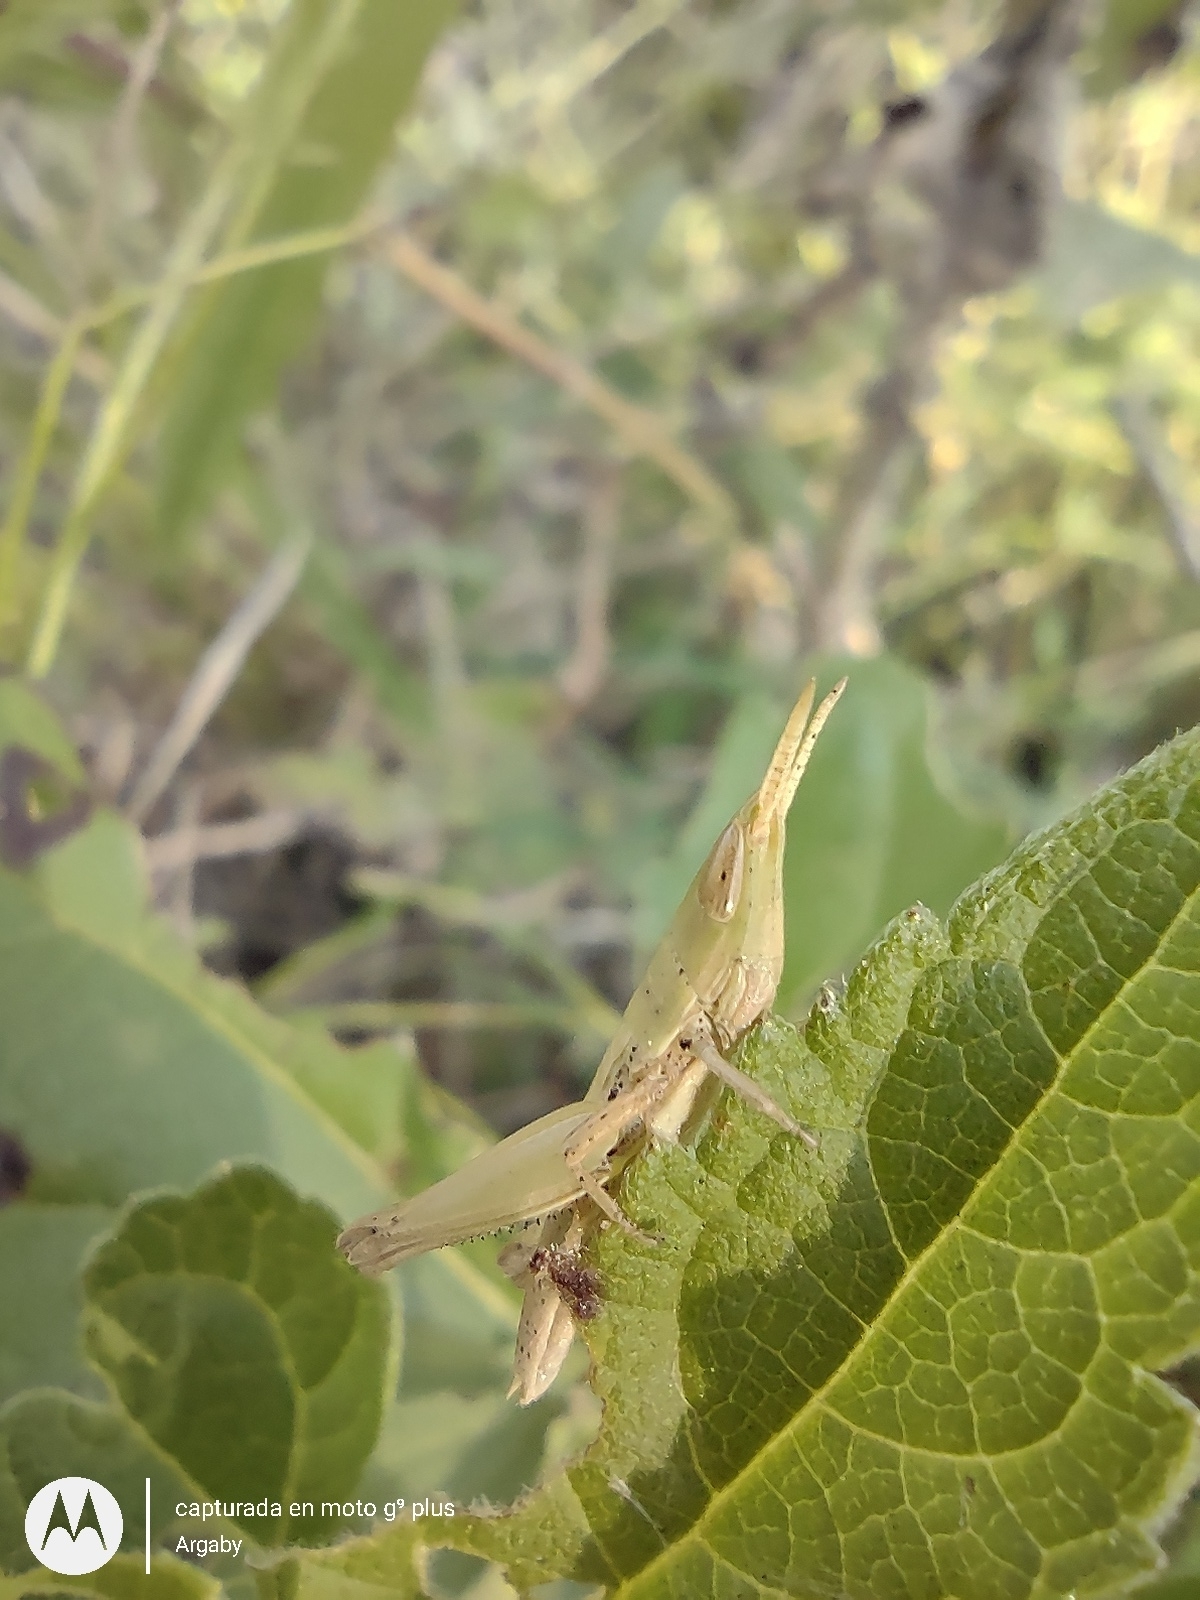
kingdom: Animalia
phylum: Arthropoda
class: Insecta
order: Orthoptera
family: Acrididae
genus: Laplatacris
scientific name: Laplatacris dispar
